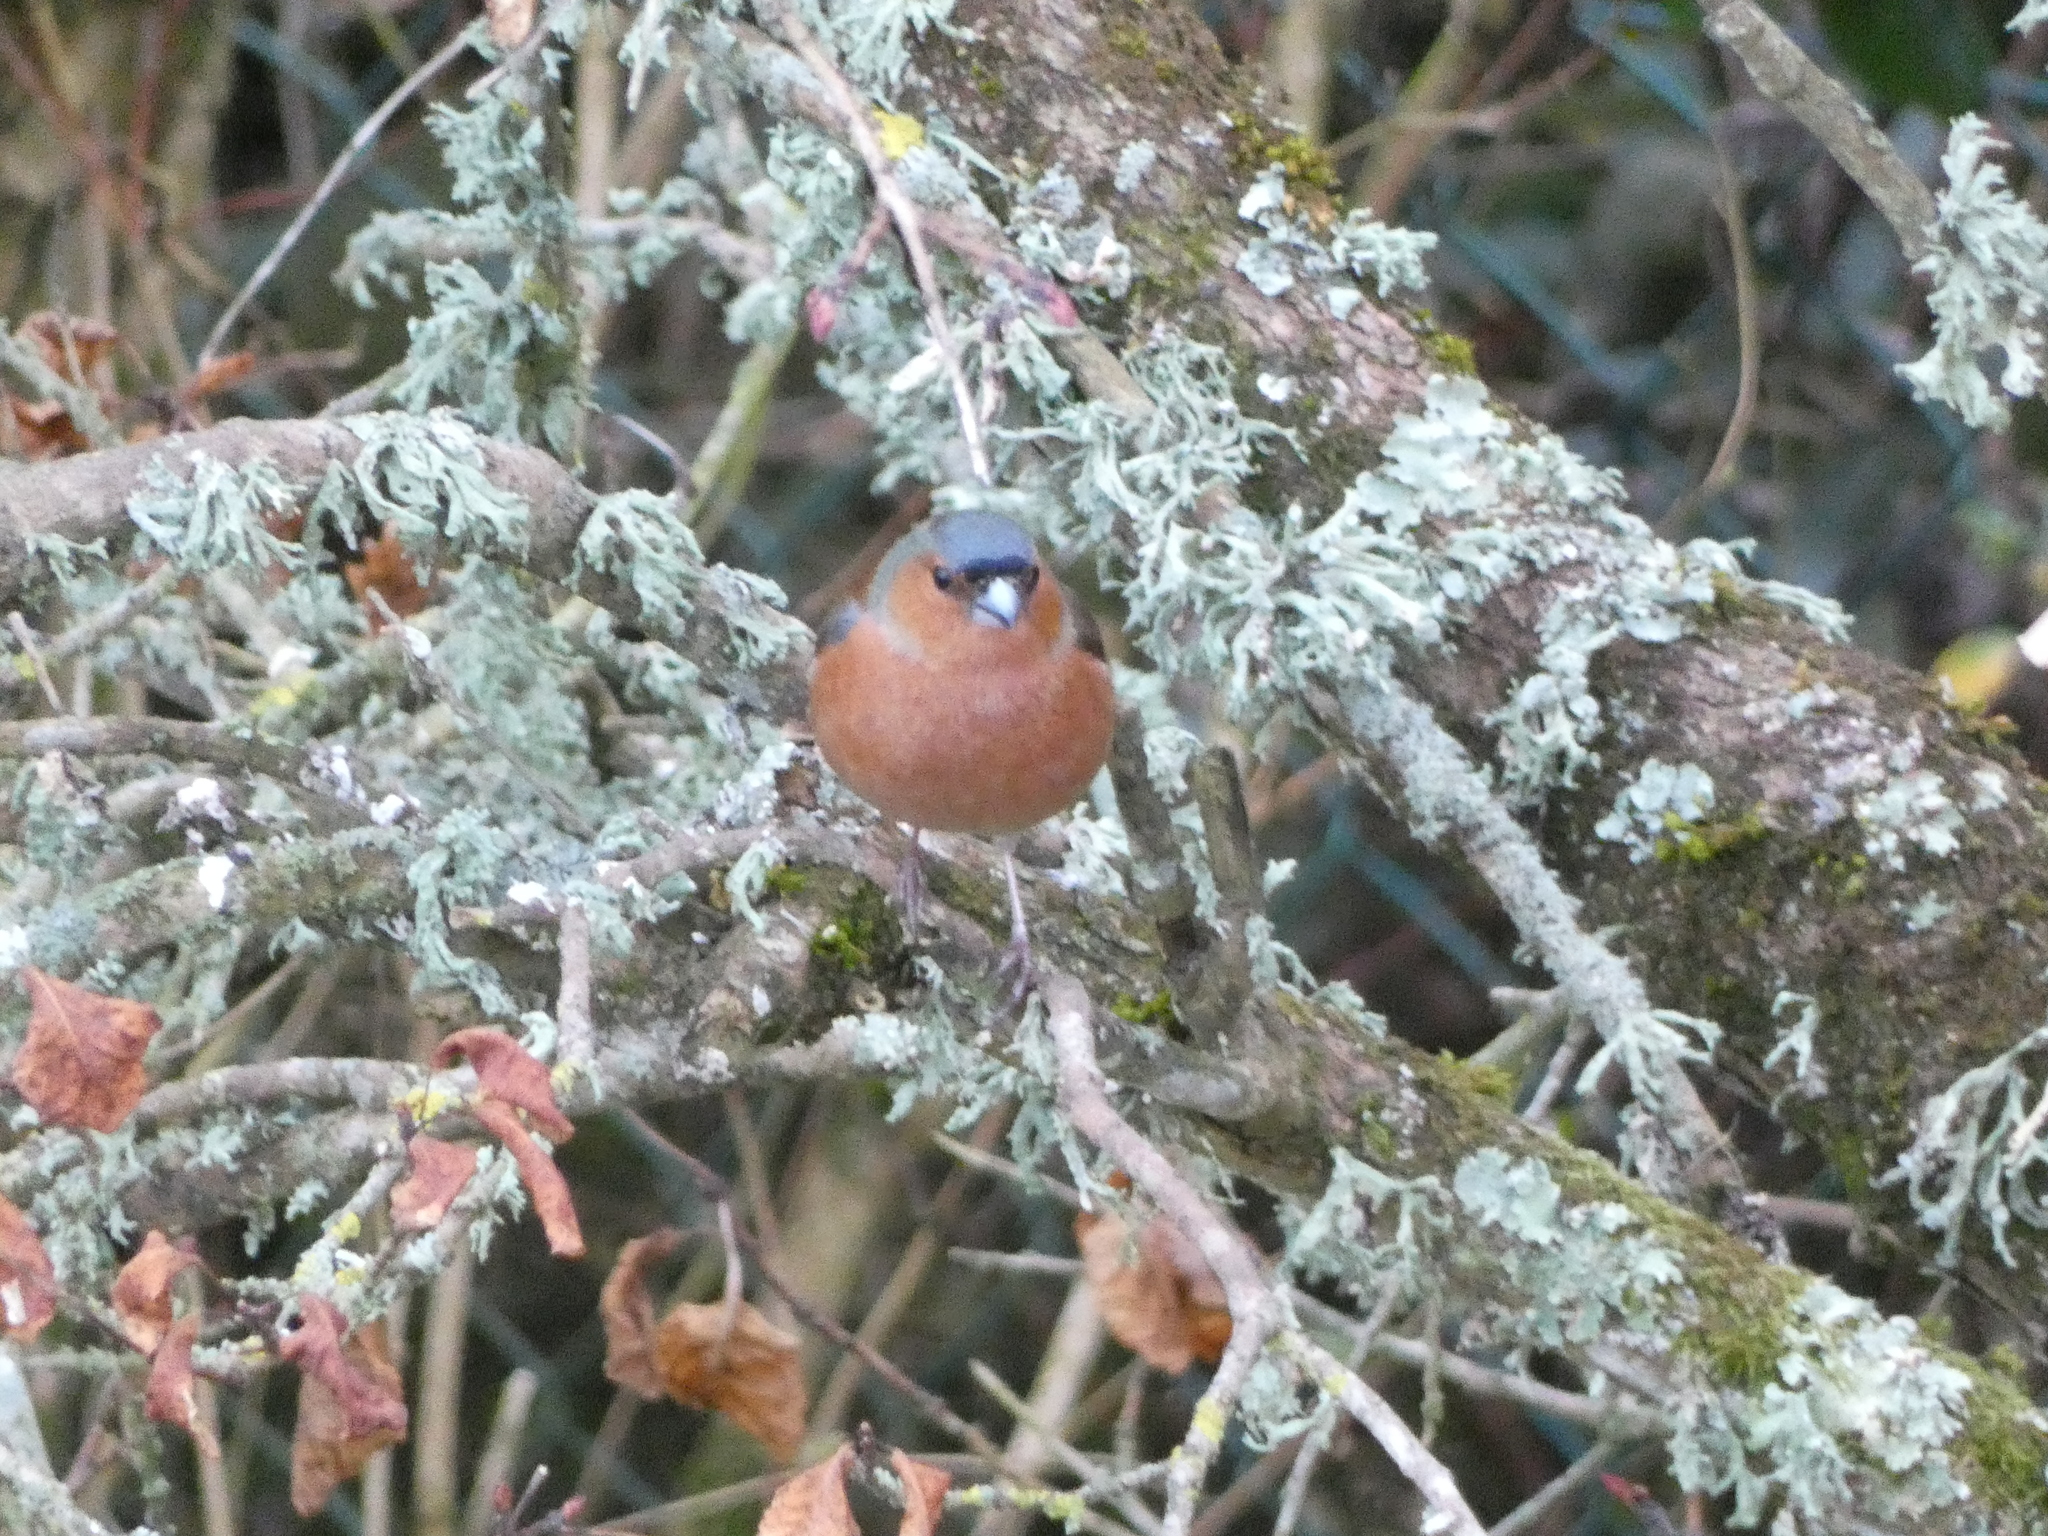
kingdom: Animalia
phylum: Chordata
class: Aves
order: Passeriformes
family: Fringillidae
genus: Fringilla
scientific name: Fringilla coelebs
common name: Common chaffinch
